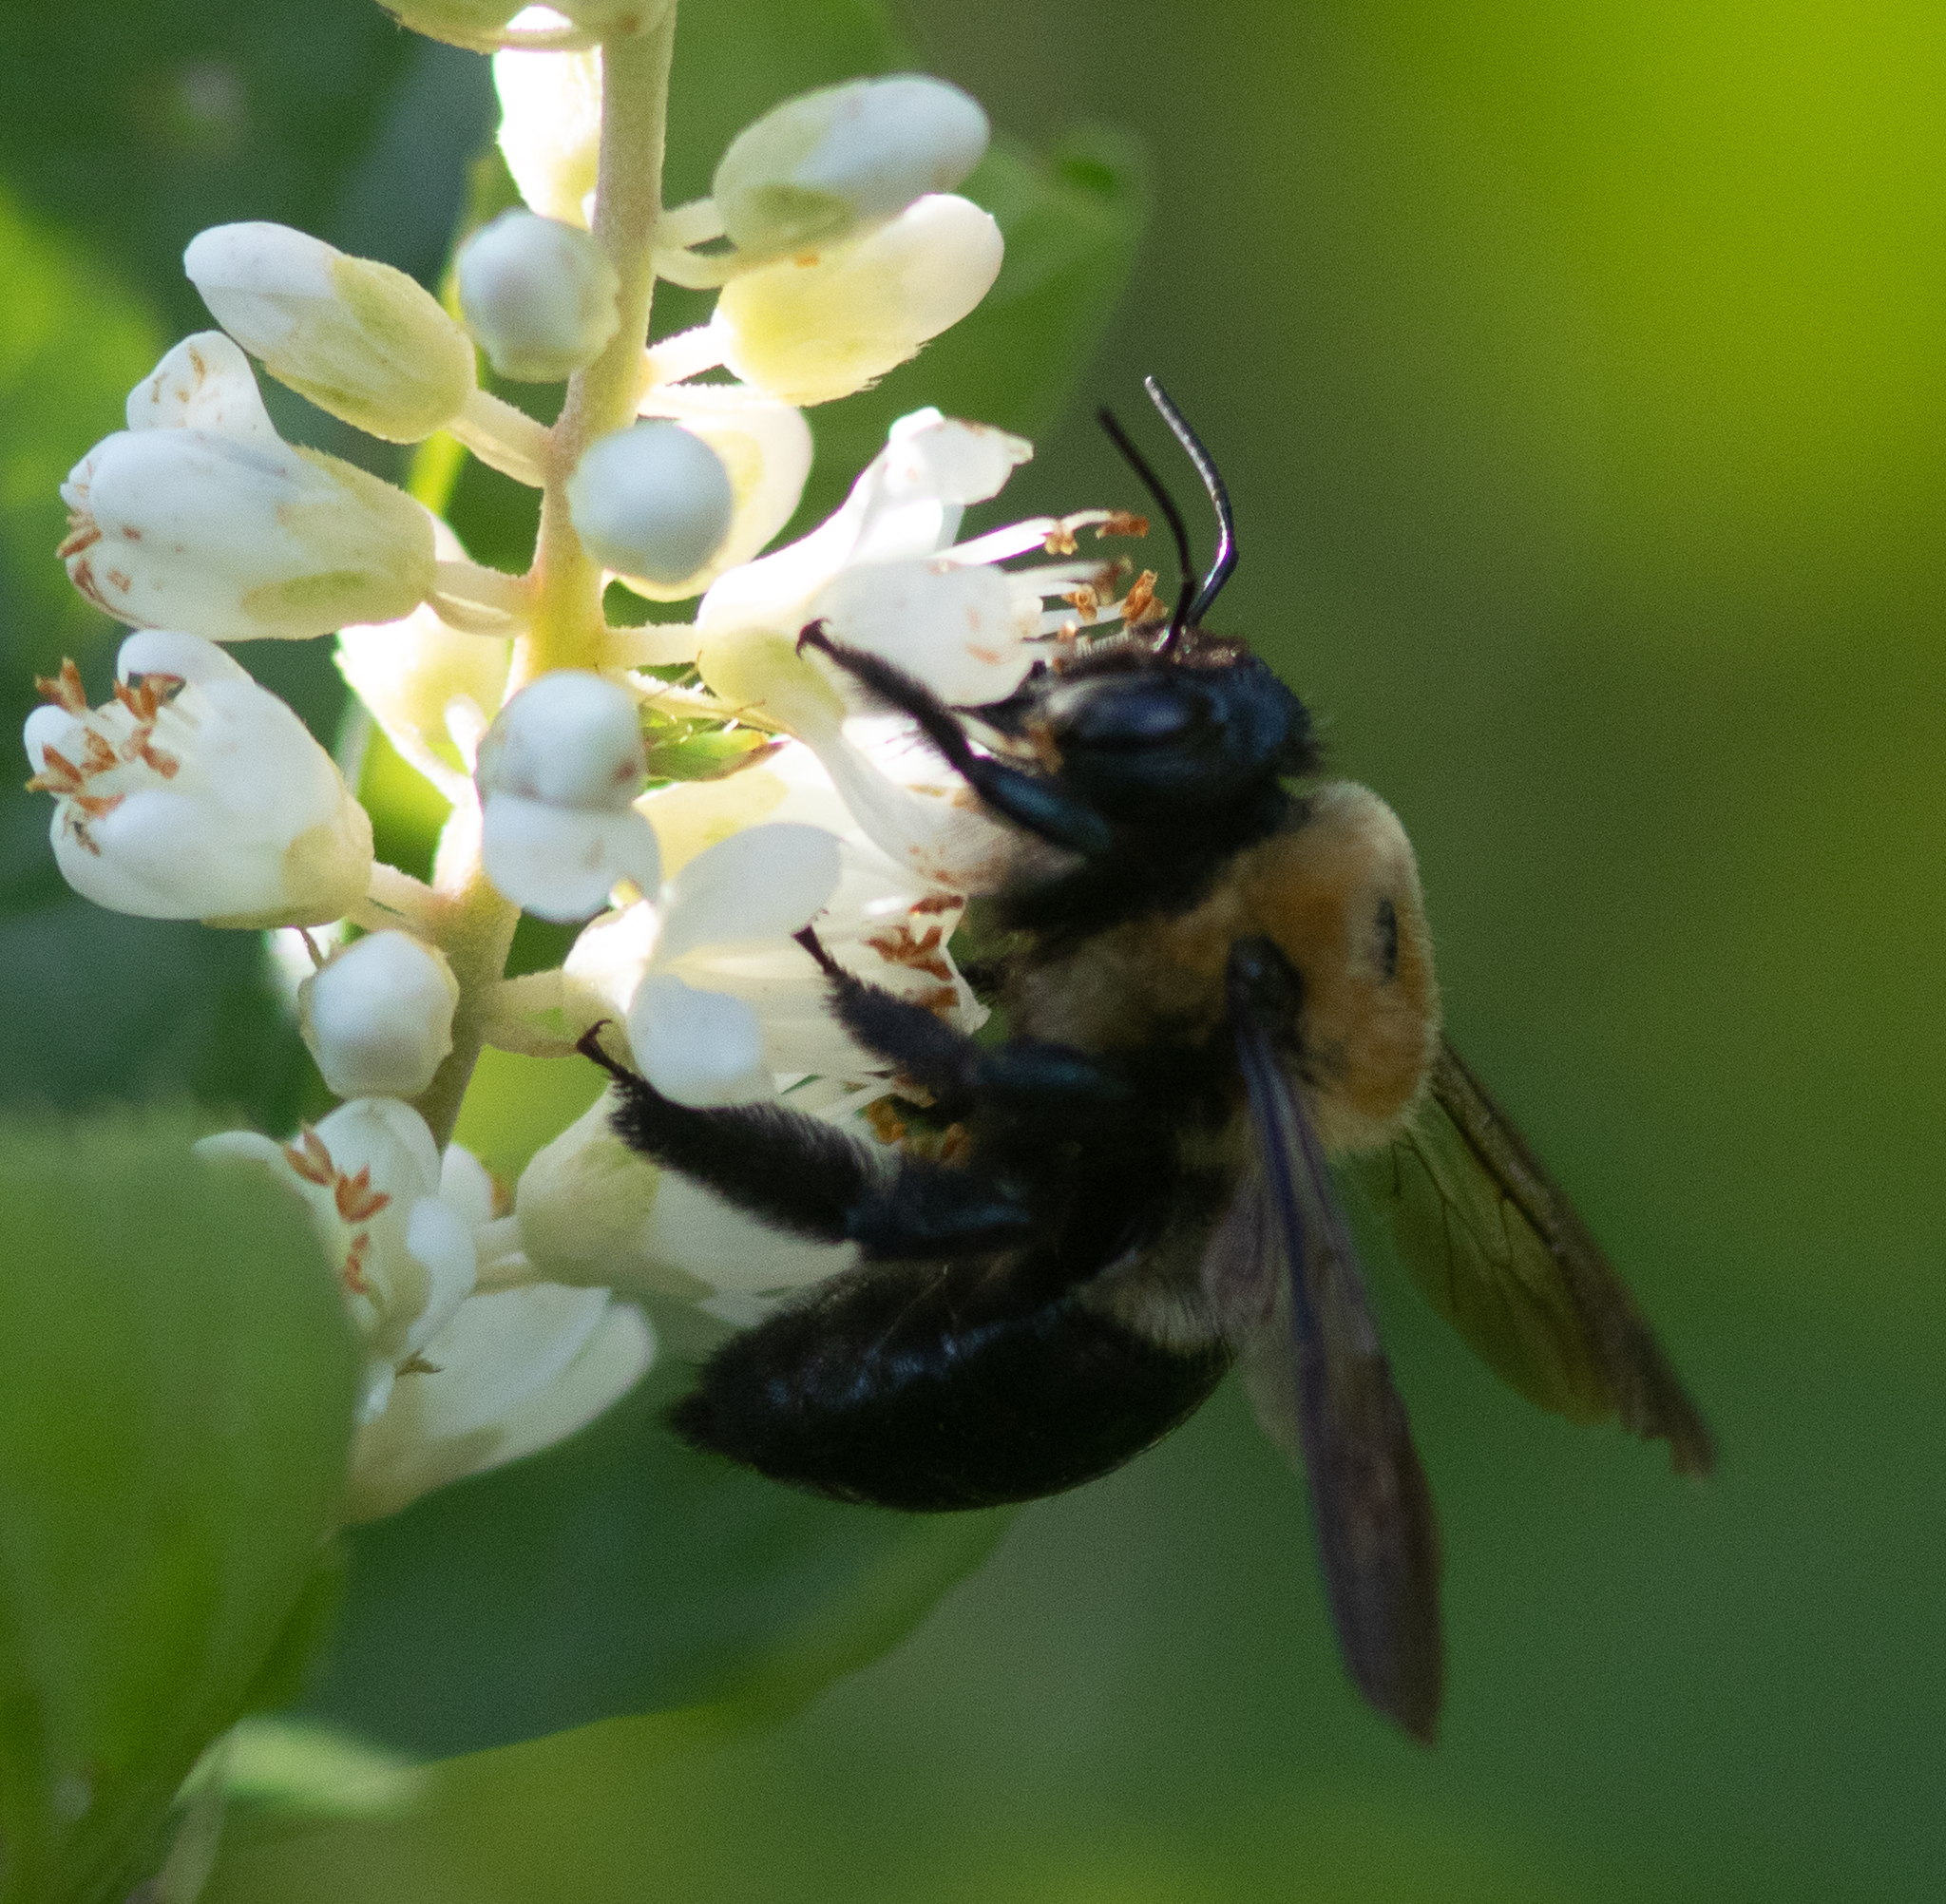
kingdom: Animalia
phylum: Arthropoda
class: Insecta
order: Hymenoptera
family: Apidae
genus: Xylocopa
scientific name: Xylocopa virginica
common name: Carpenter bee
